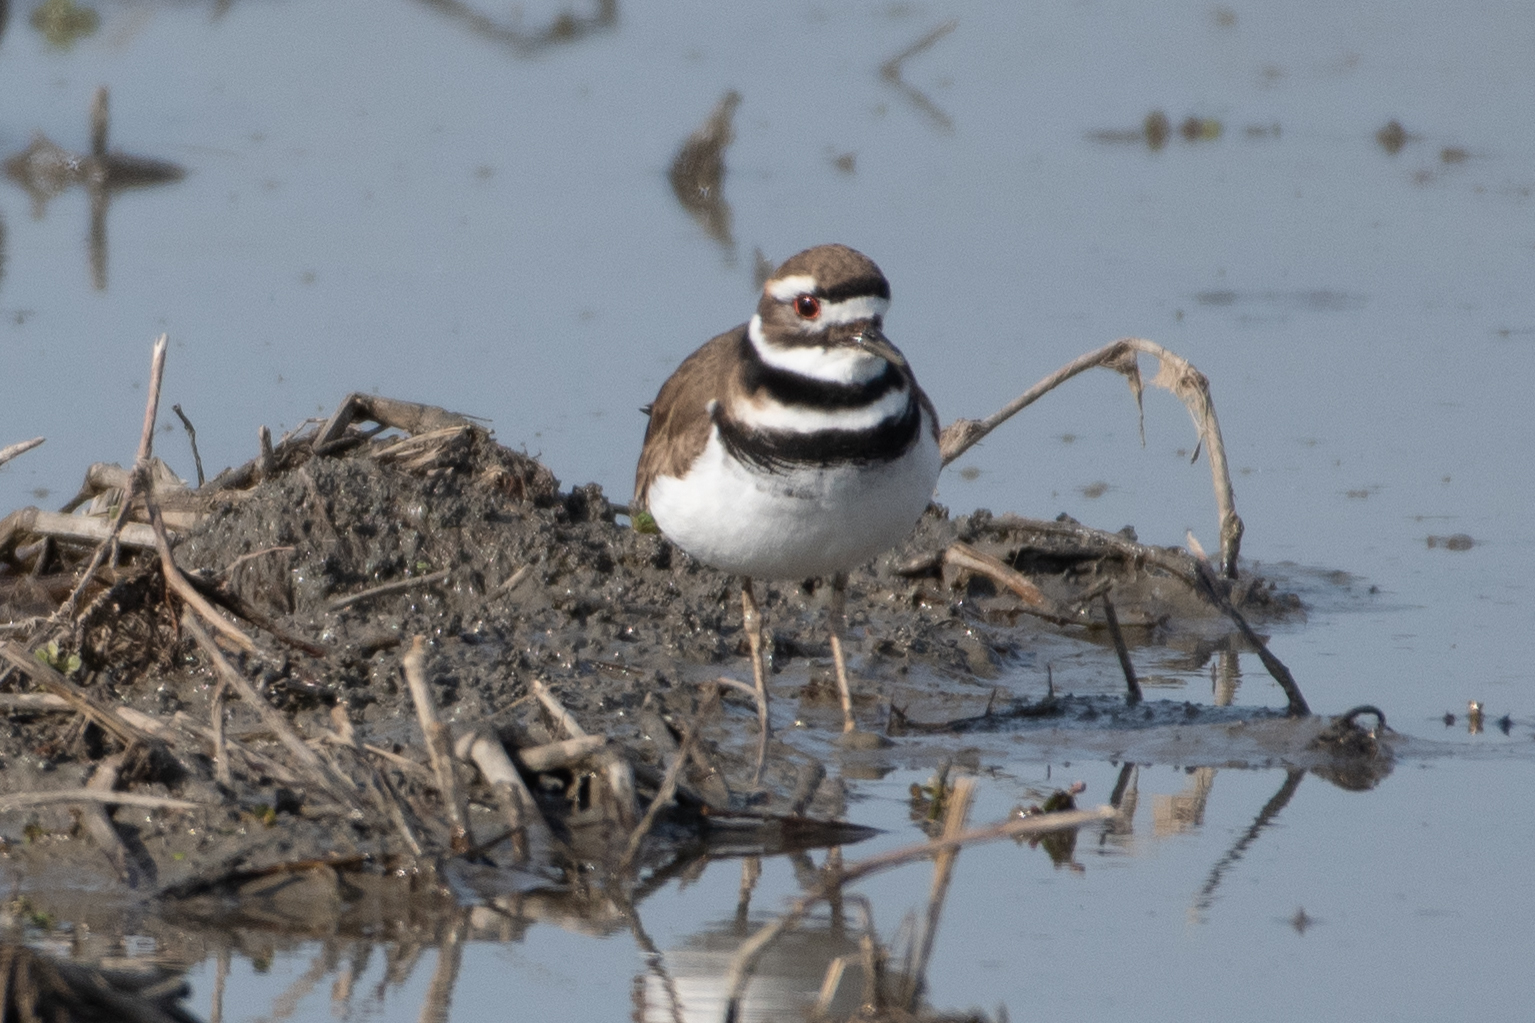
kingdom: Animalia
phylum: Chordata
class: Aves
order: Charadriiformes
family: Charadriidae
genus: Charadrius
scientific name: Charadrius vociferus
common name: Killdeer
